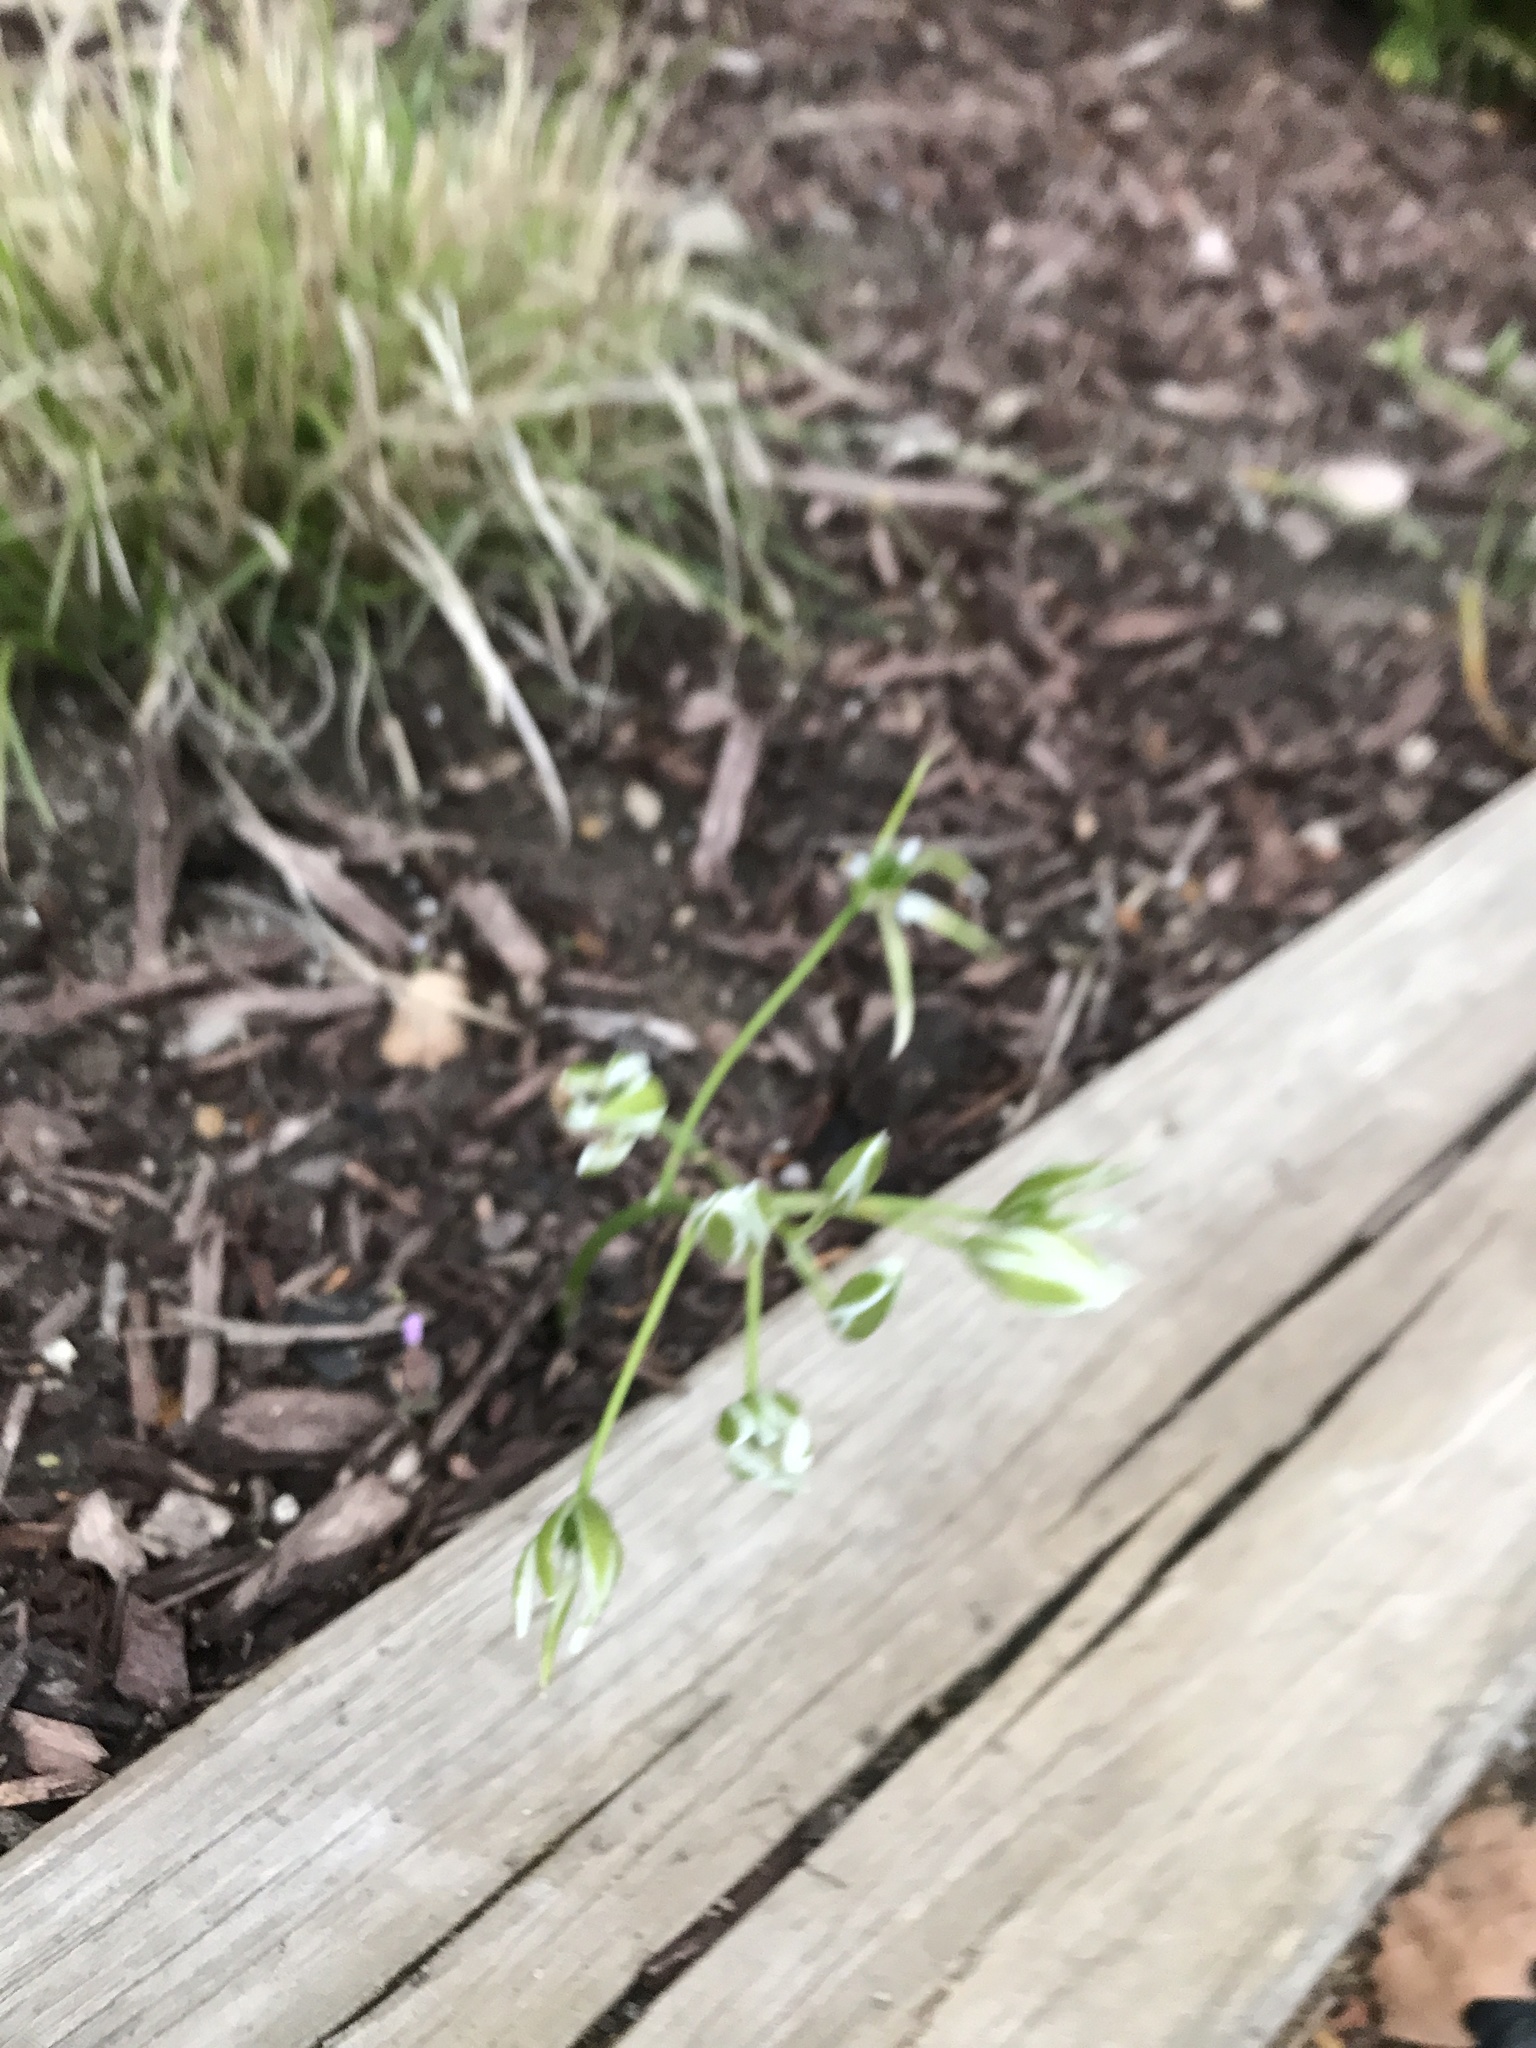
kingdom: Plantae
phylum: Tracheophyta
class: Liliopsida
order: Asparagales
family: Asparagaceae
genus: Ornithogalum
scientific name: Ornithogalum umbellatum
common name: Garden star-of-bethlehem
